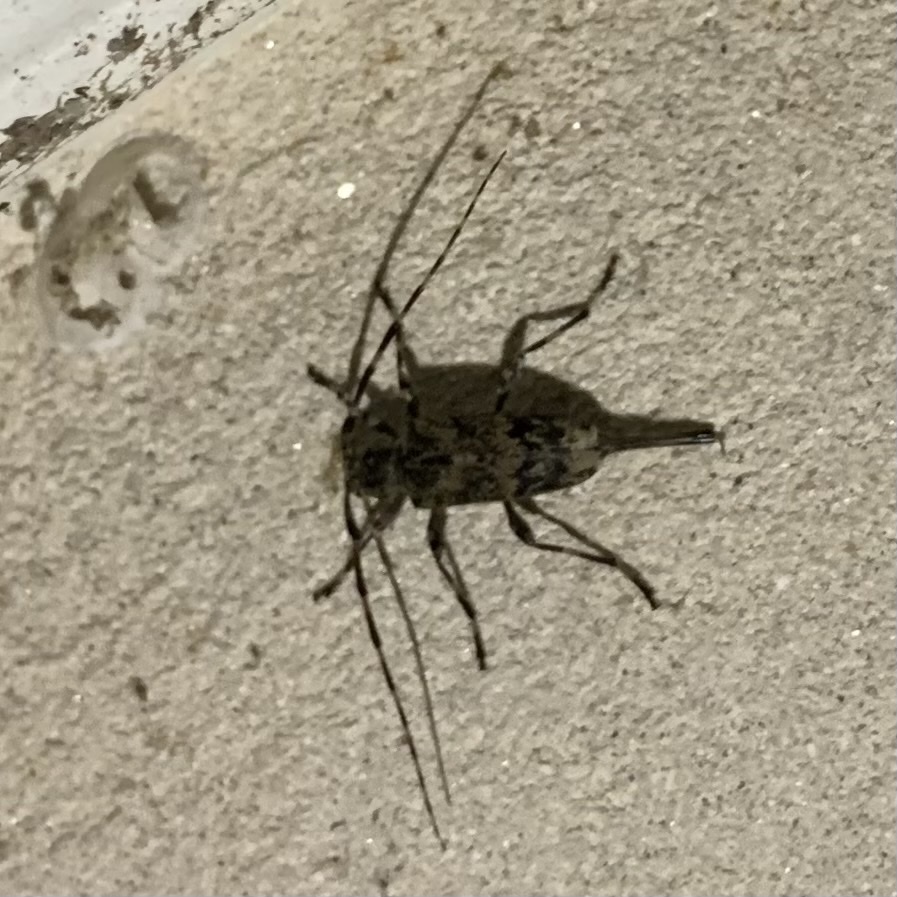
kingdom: Animalia
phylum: Arthropoda
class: Insecta
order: Coleoptera
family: Cerambycidae
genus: Graphisurus
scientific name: Graphisurus fasciatus
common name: Banded graphisurus
